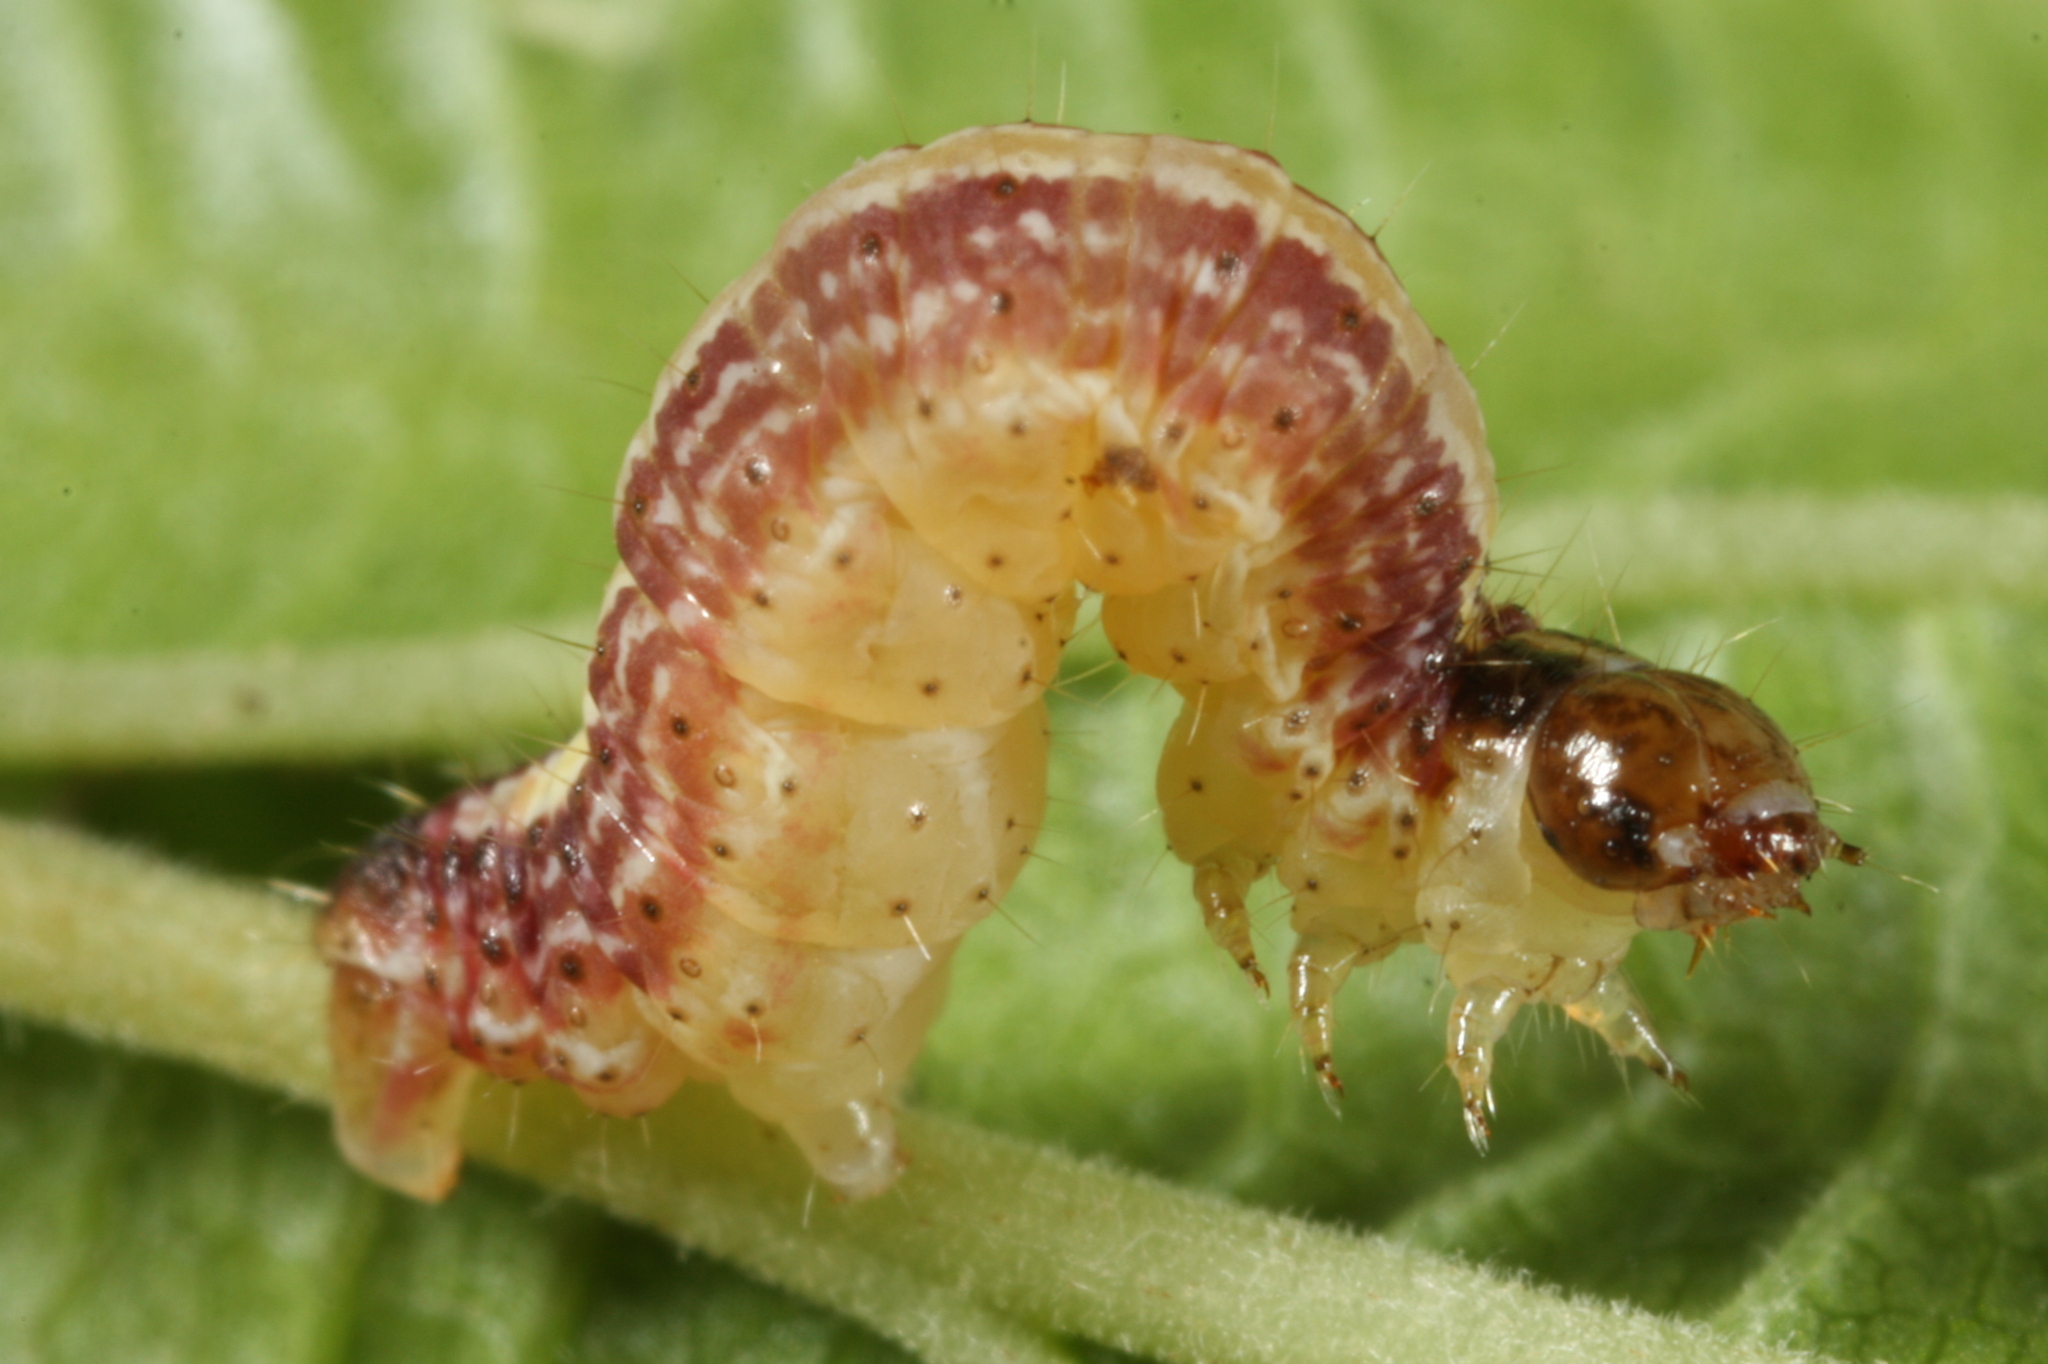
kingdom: Animalia
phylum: Arthropoda
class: Insecta
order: Lepidoptera
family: Geometridae
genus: Perizoma
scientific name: Perizoma alchemillata
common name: Small rivulet
